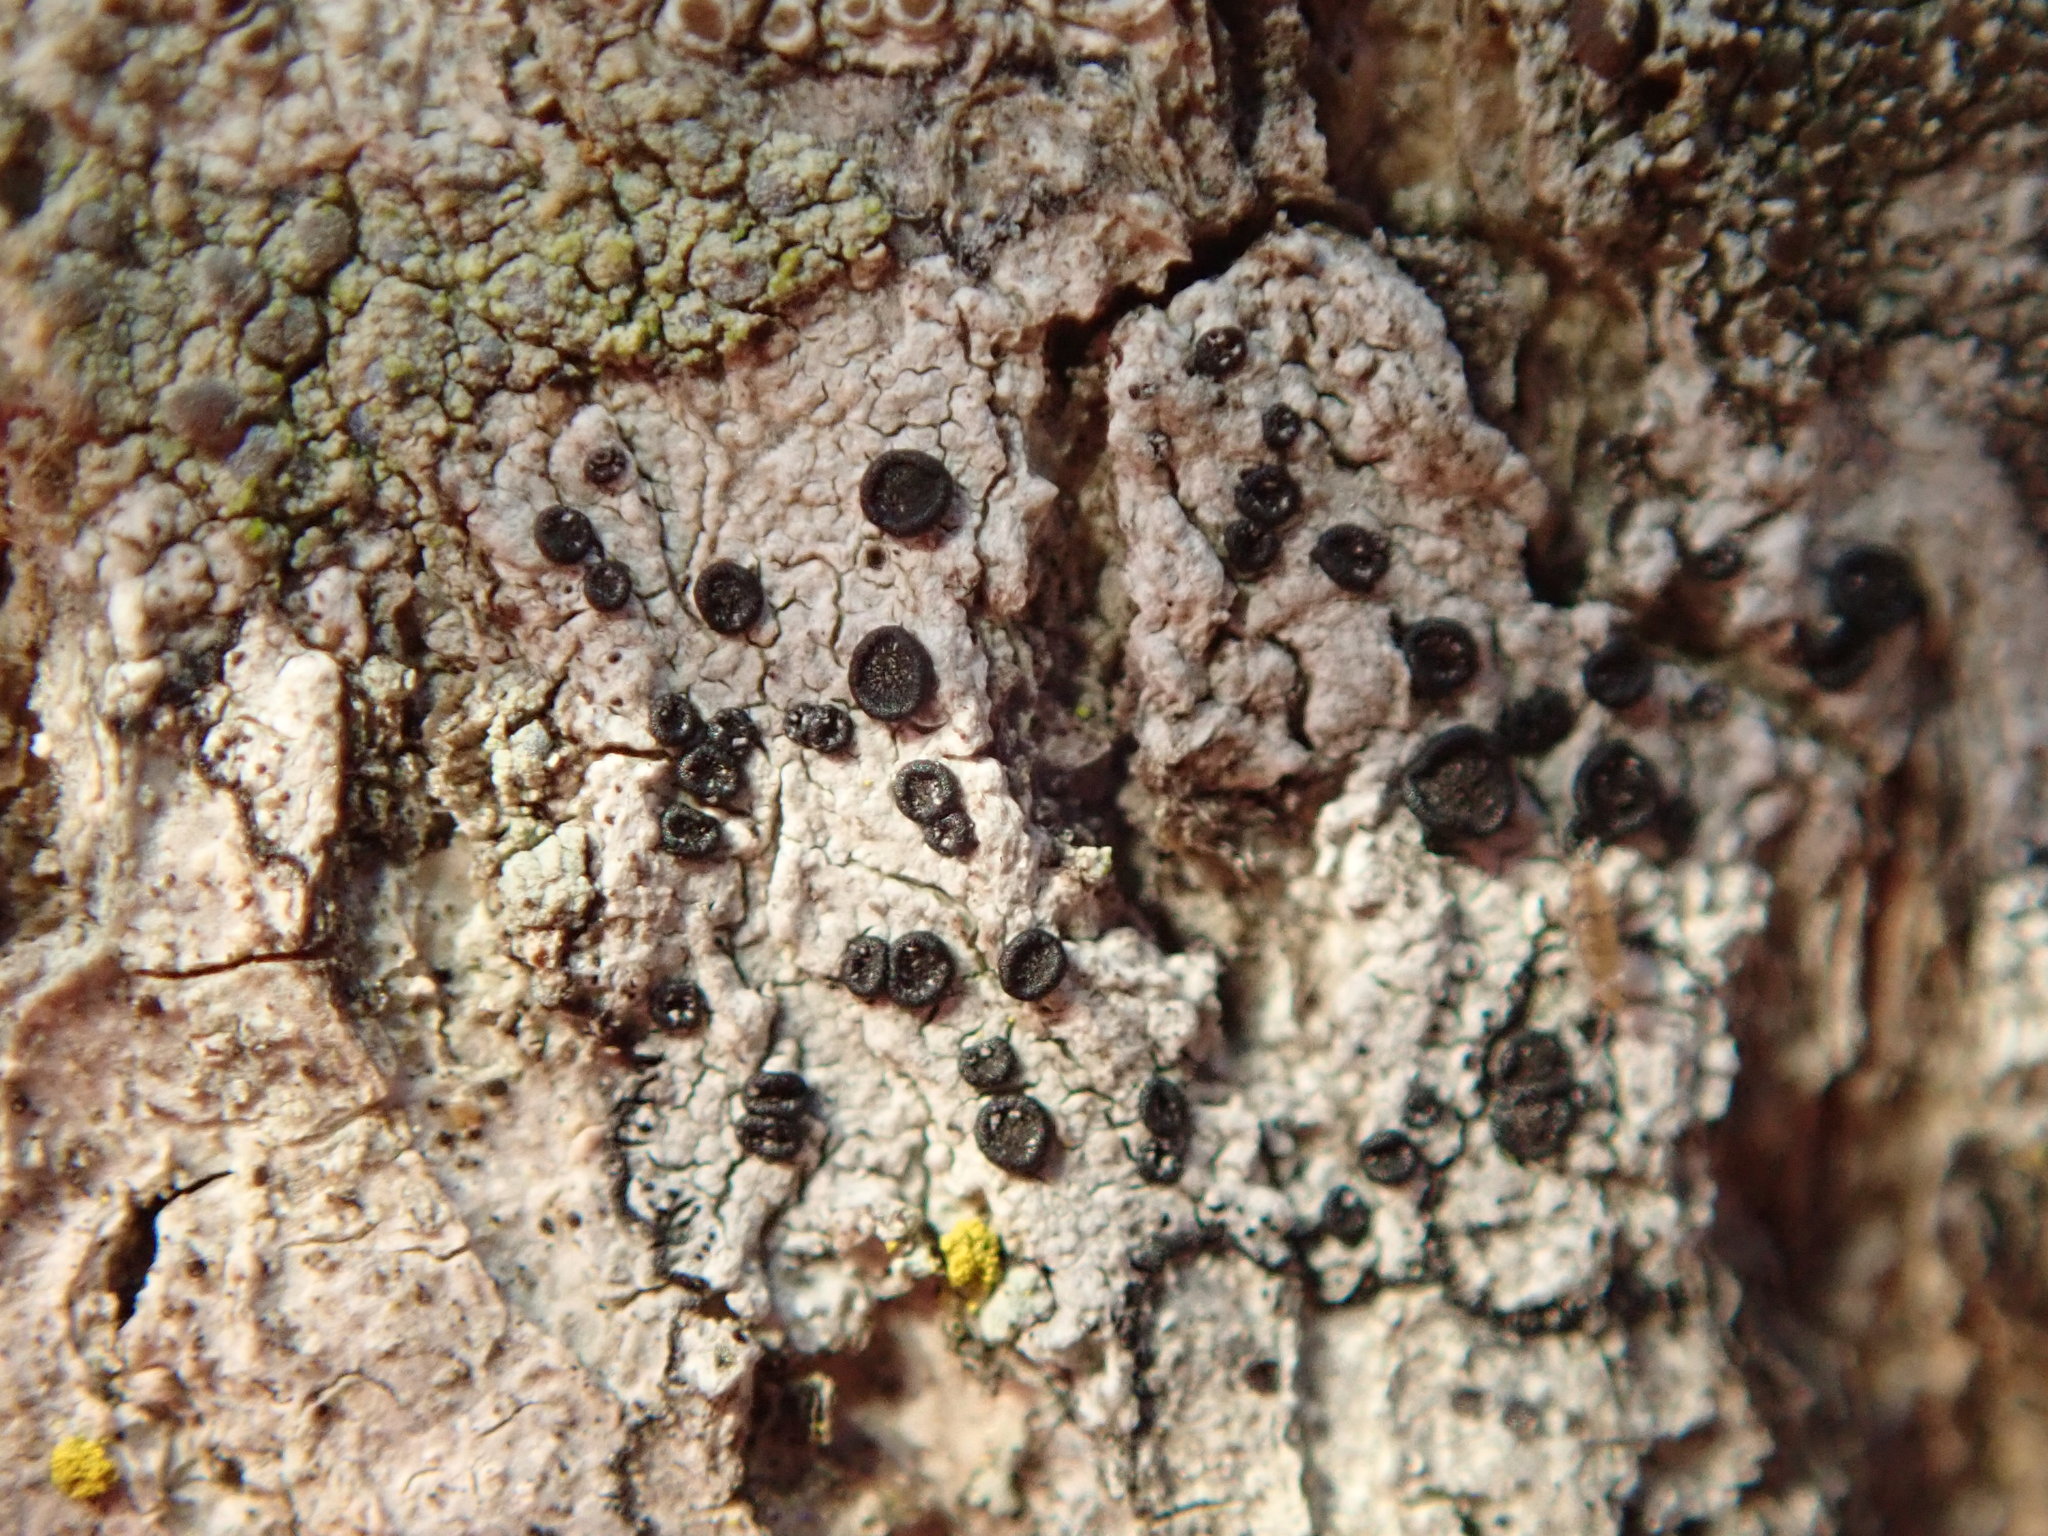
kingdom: Fungi
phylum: Ascomycota
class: Lecanoromycetes
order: Caliciales
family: Caliciaceae
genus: Buellia
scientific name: Buellia erubescens
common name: Common button lichen
